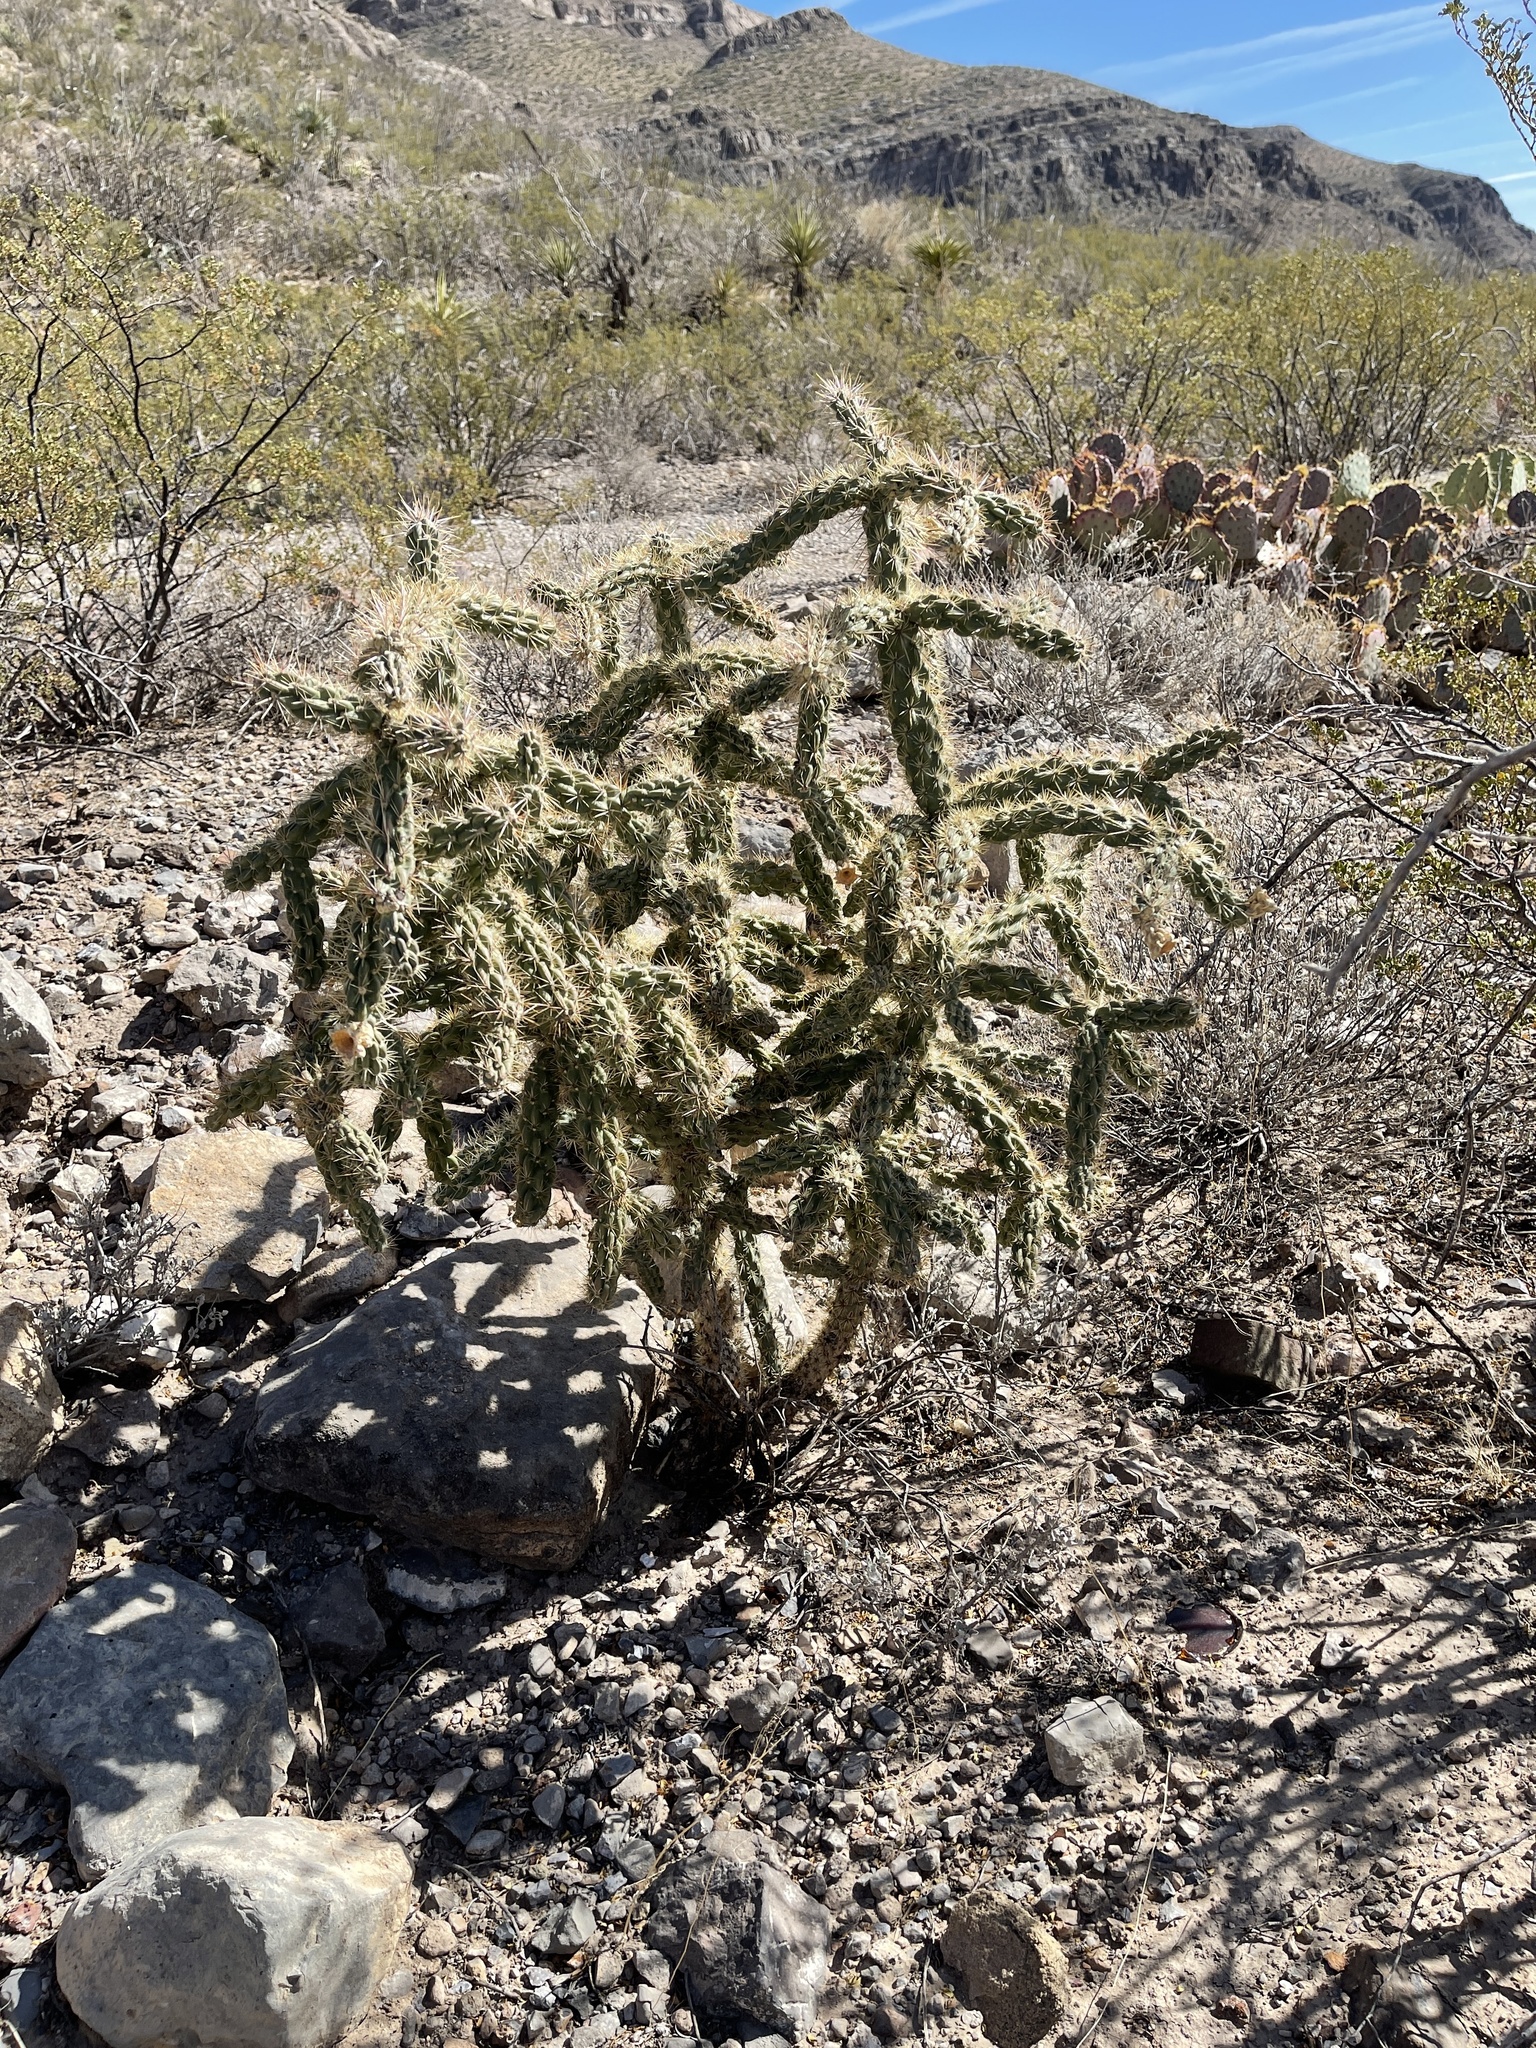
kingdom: Plantae
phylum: Tracheophyta
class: Magnoliopsida
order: Caryophyllales
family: Cactaceae
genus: Cylindropuntia
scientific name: Cylindropuntia imbricata
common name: Candelabrum cactus
